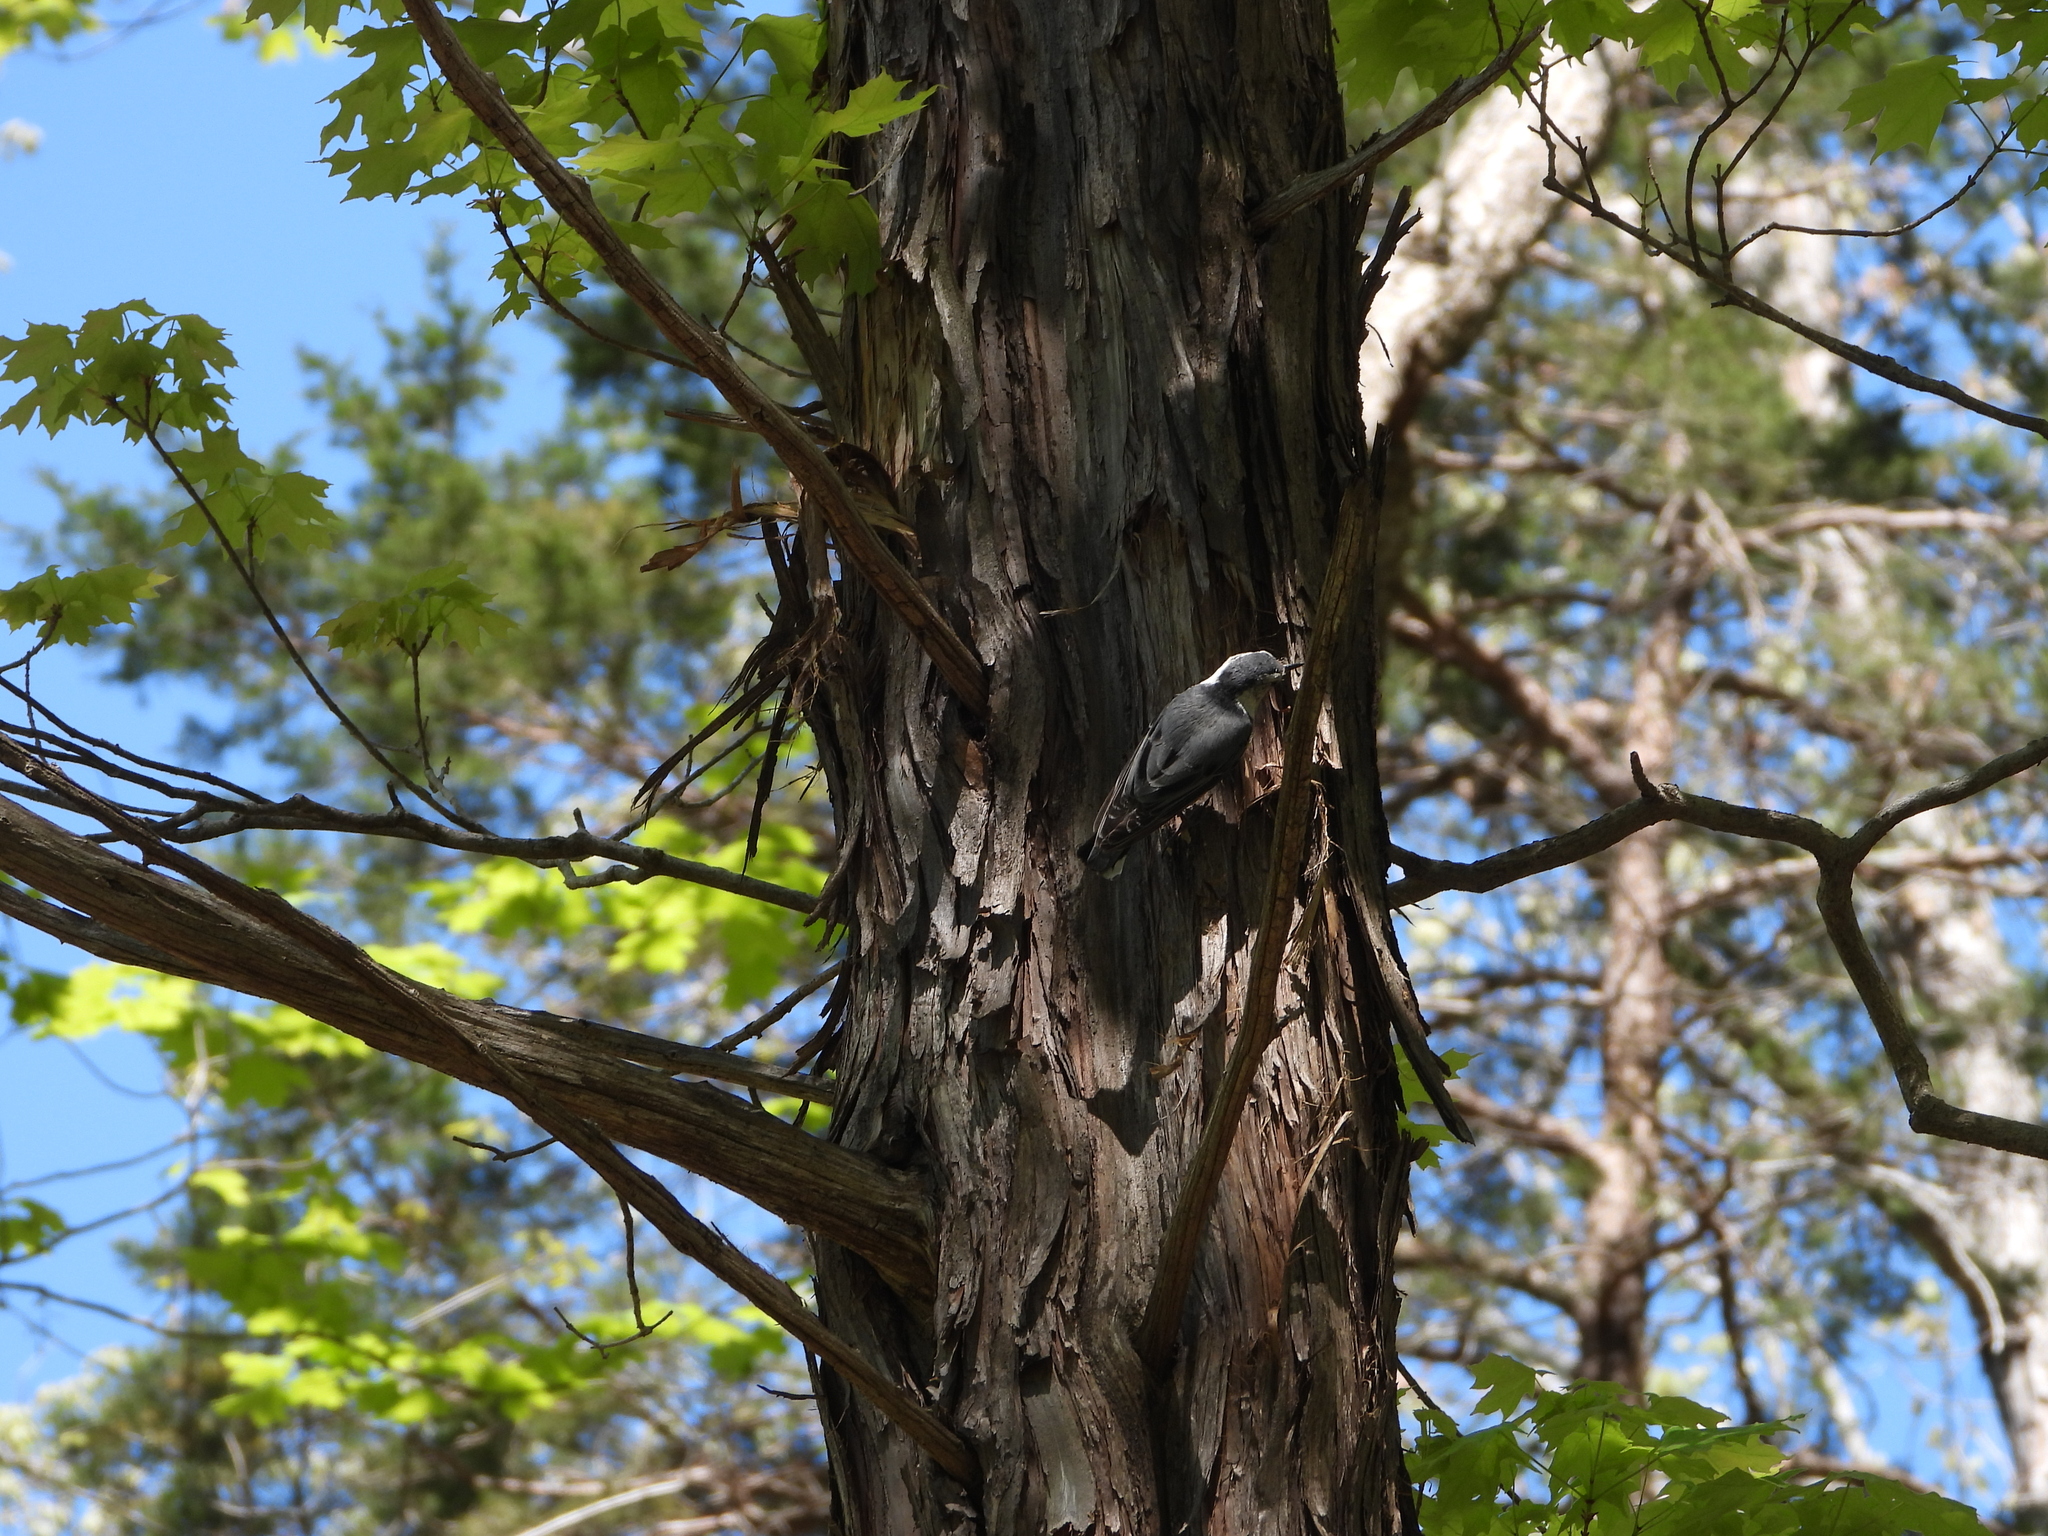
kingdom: Animalia
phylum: Chordata
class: Aves
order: Passeriformes
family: Sittidae
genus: Sitta
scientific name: Sitta carolinensis
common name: White-breasted nuthatch
